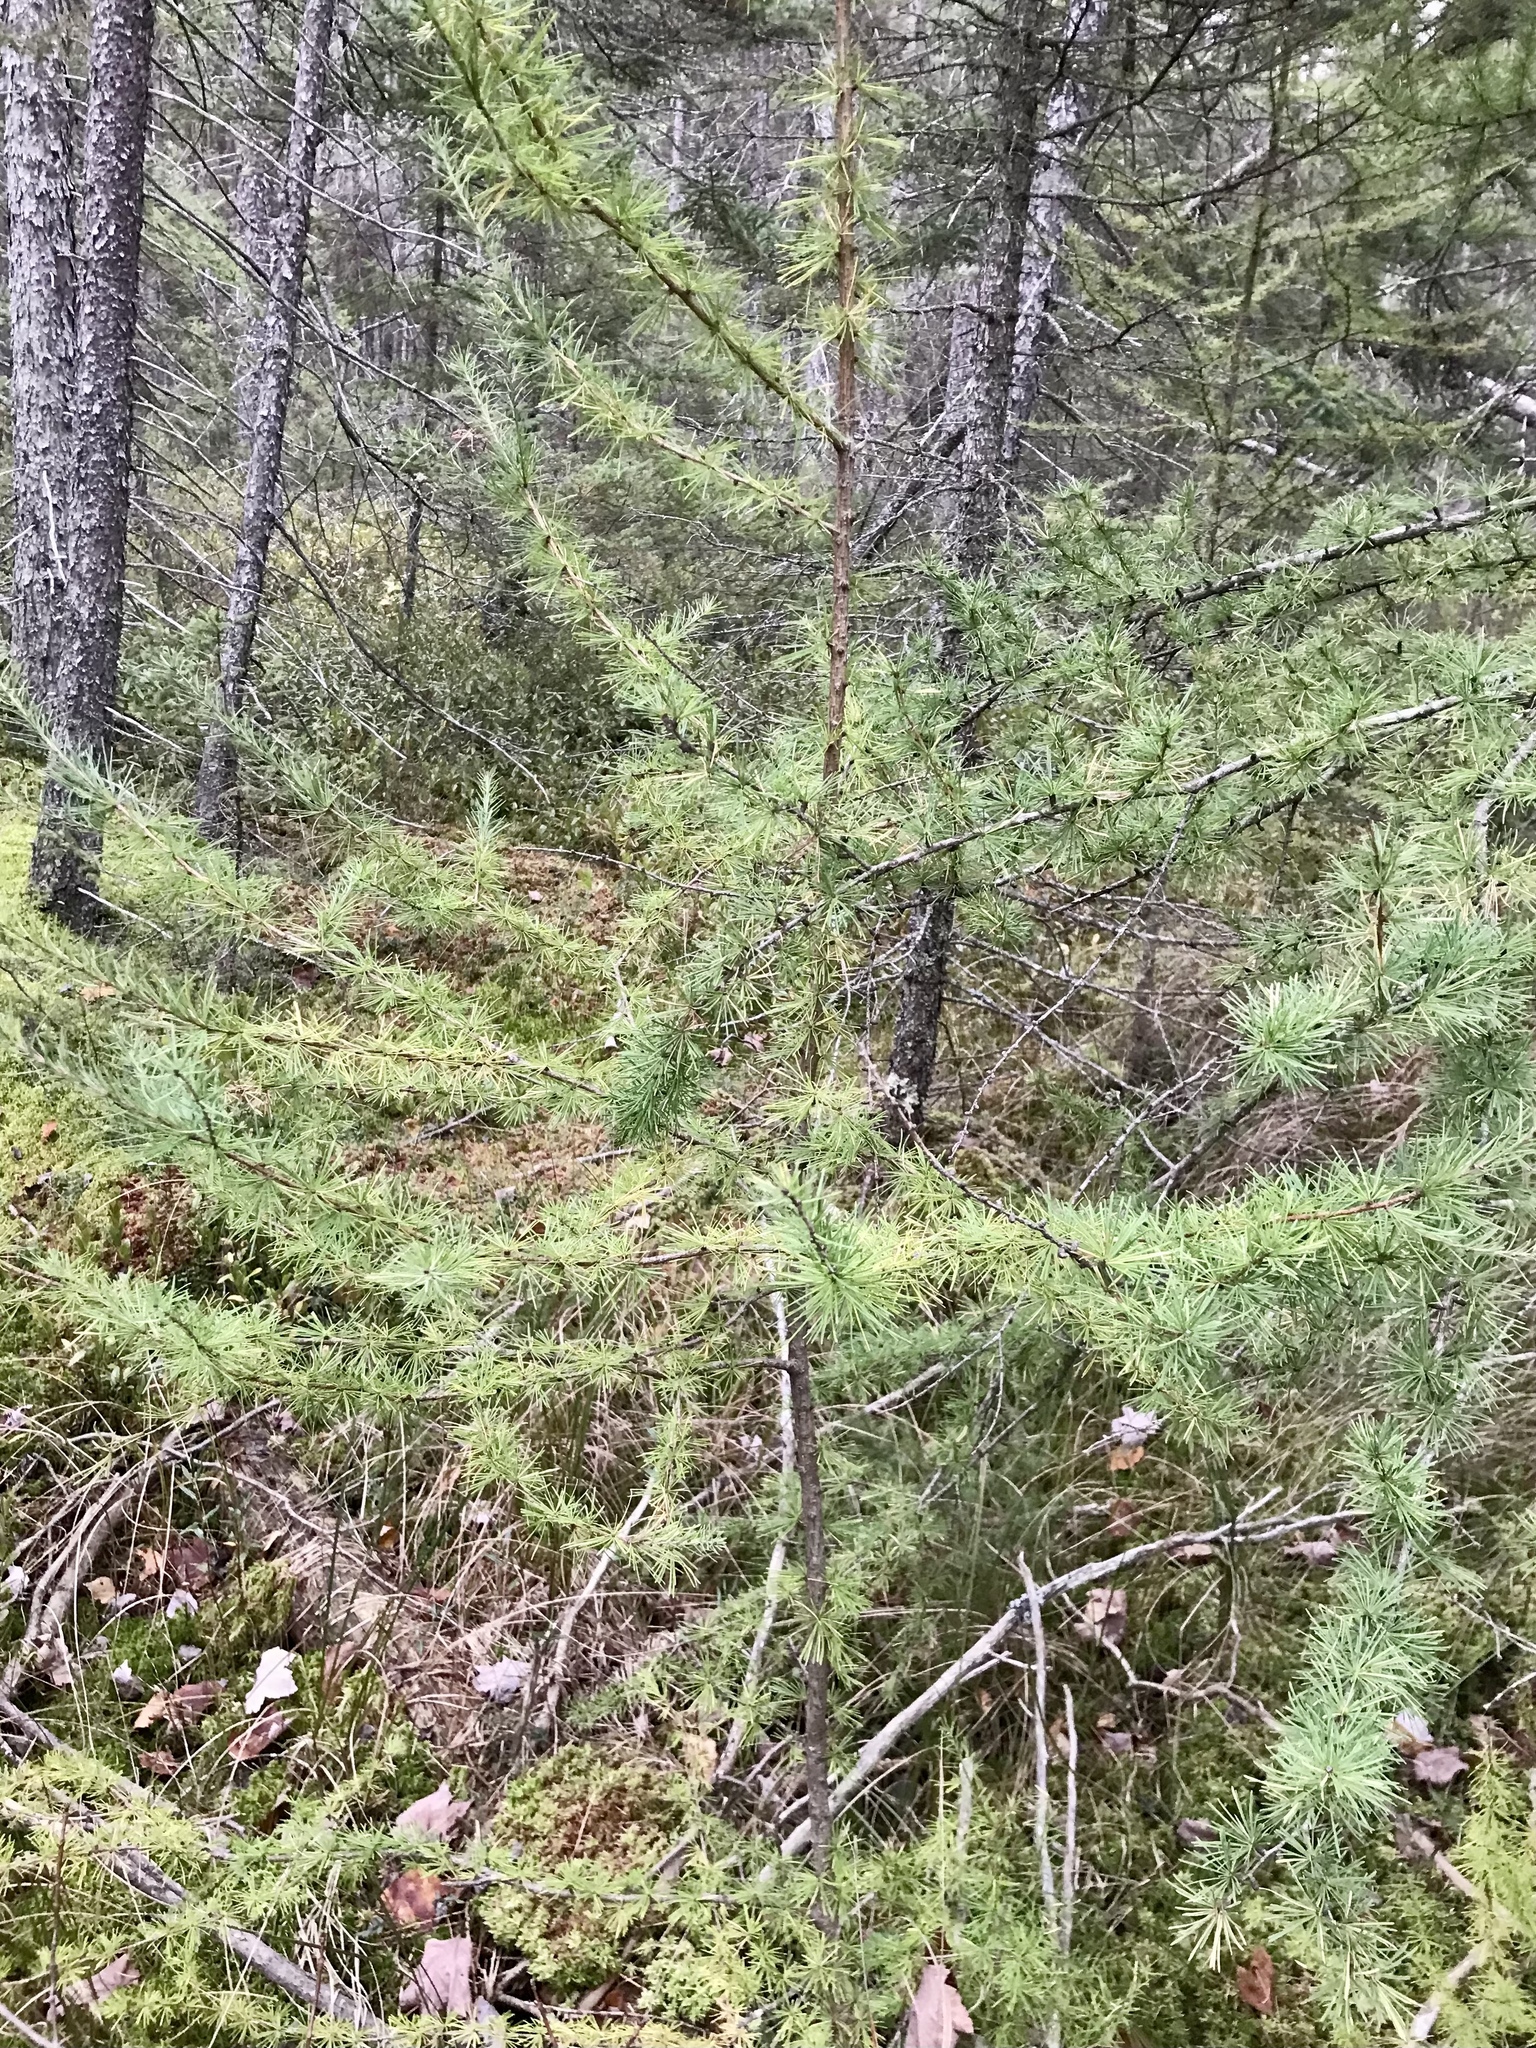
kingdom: Plantae
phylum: Tracheophyta
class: Pinopsida
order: Pinales
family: Pinaceae
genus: Larix
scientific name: Larix laricina
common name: American larch
